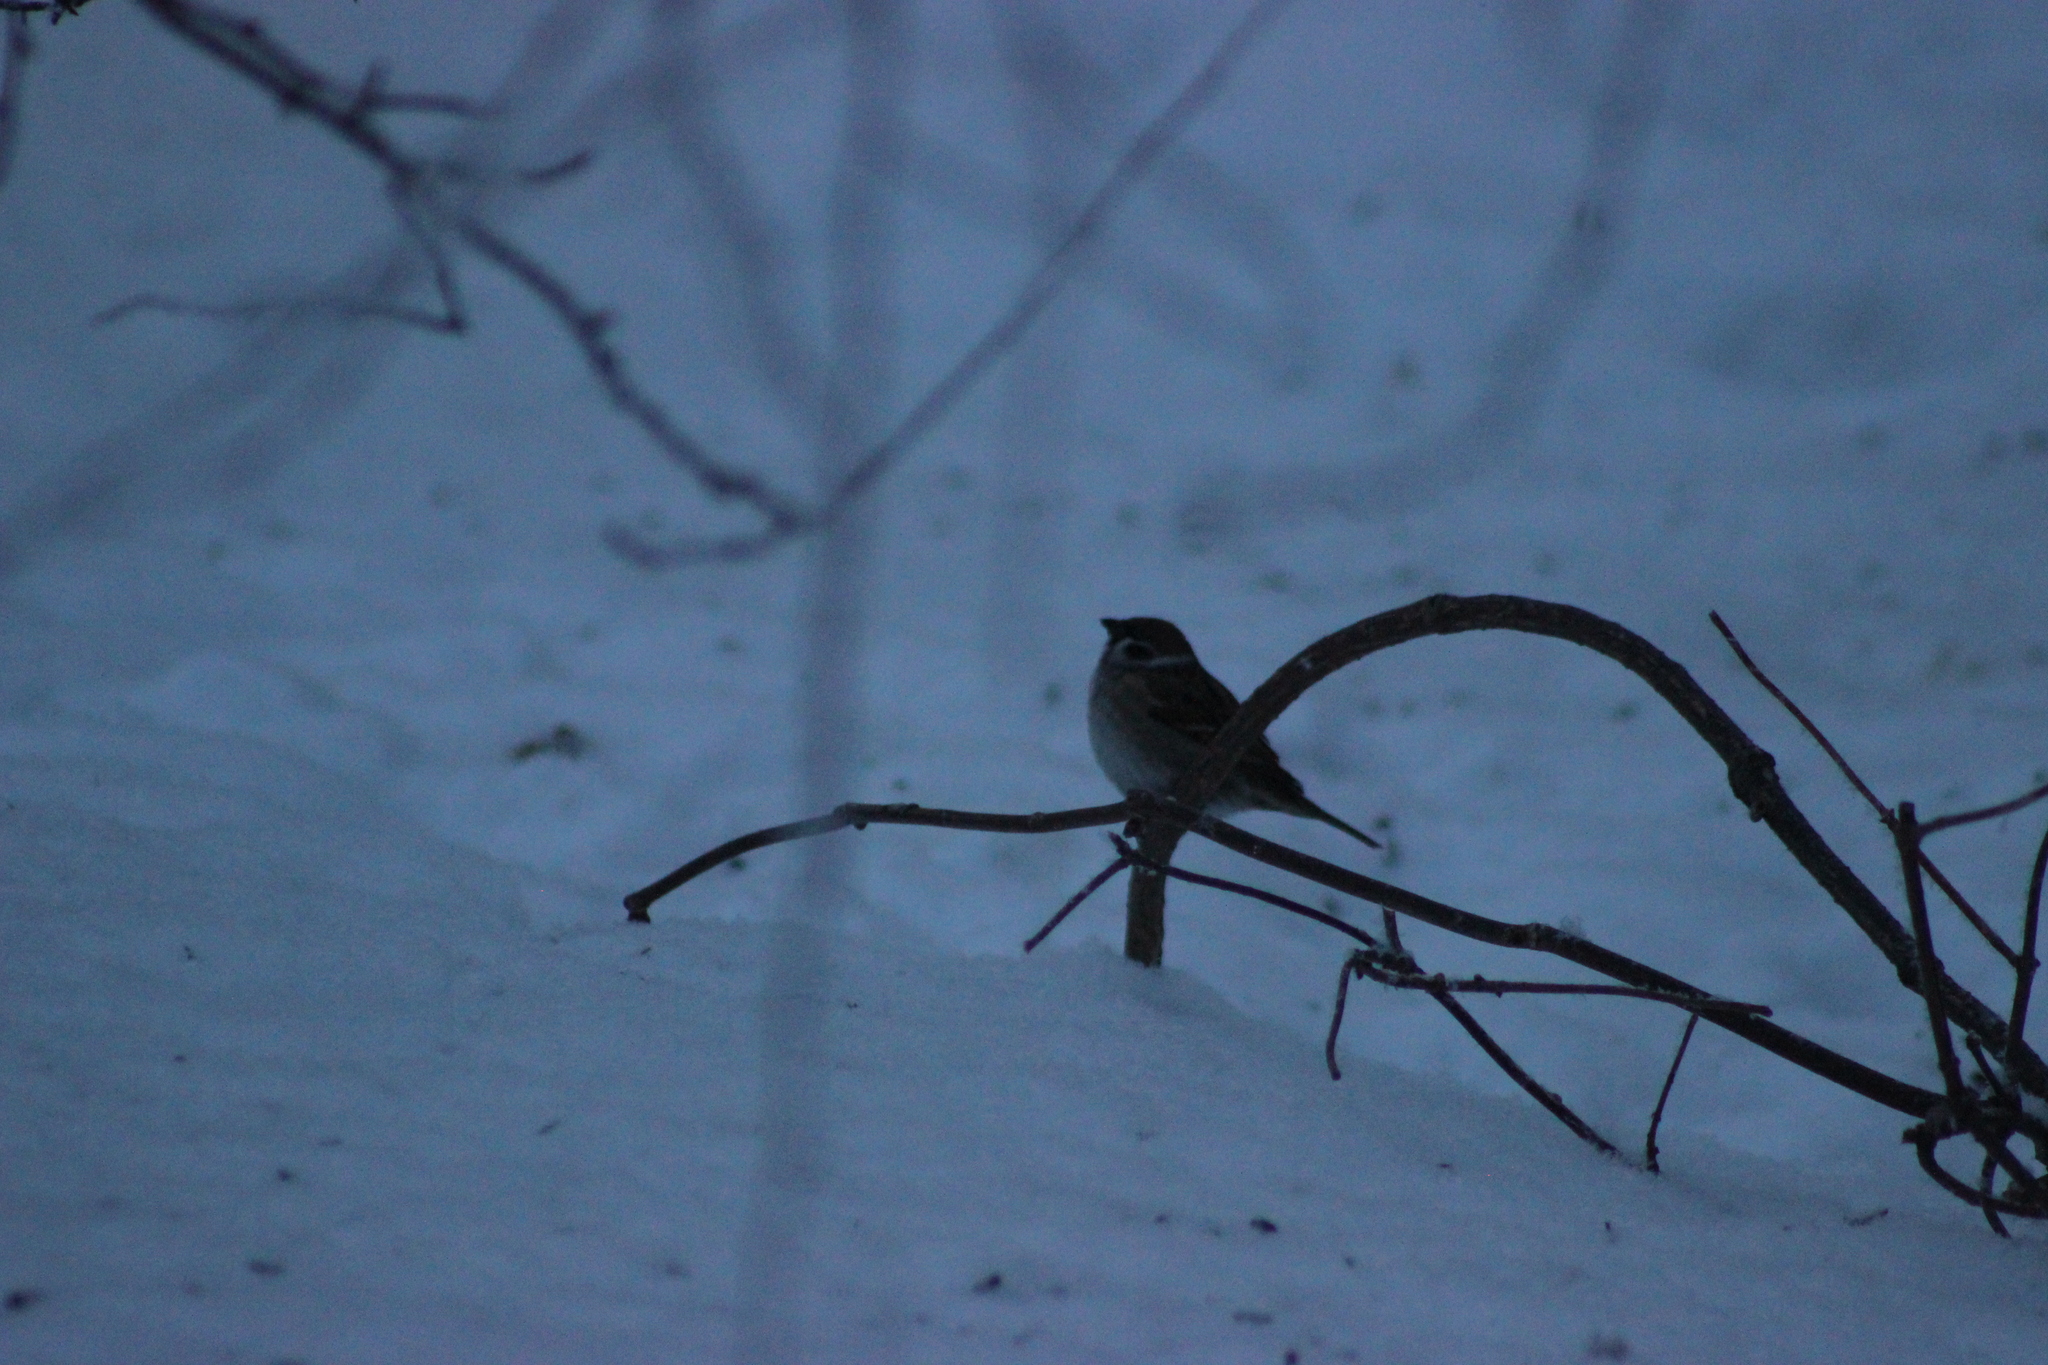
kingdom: Animalia
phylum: Chordata
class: Aves
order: Passeriformes
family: Passeridae
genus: Passer
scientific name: Passer montanus
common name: Eurasian tree sparrow
